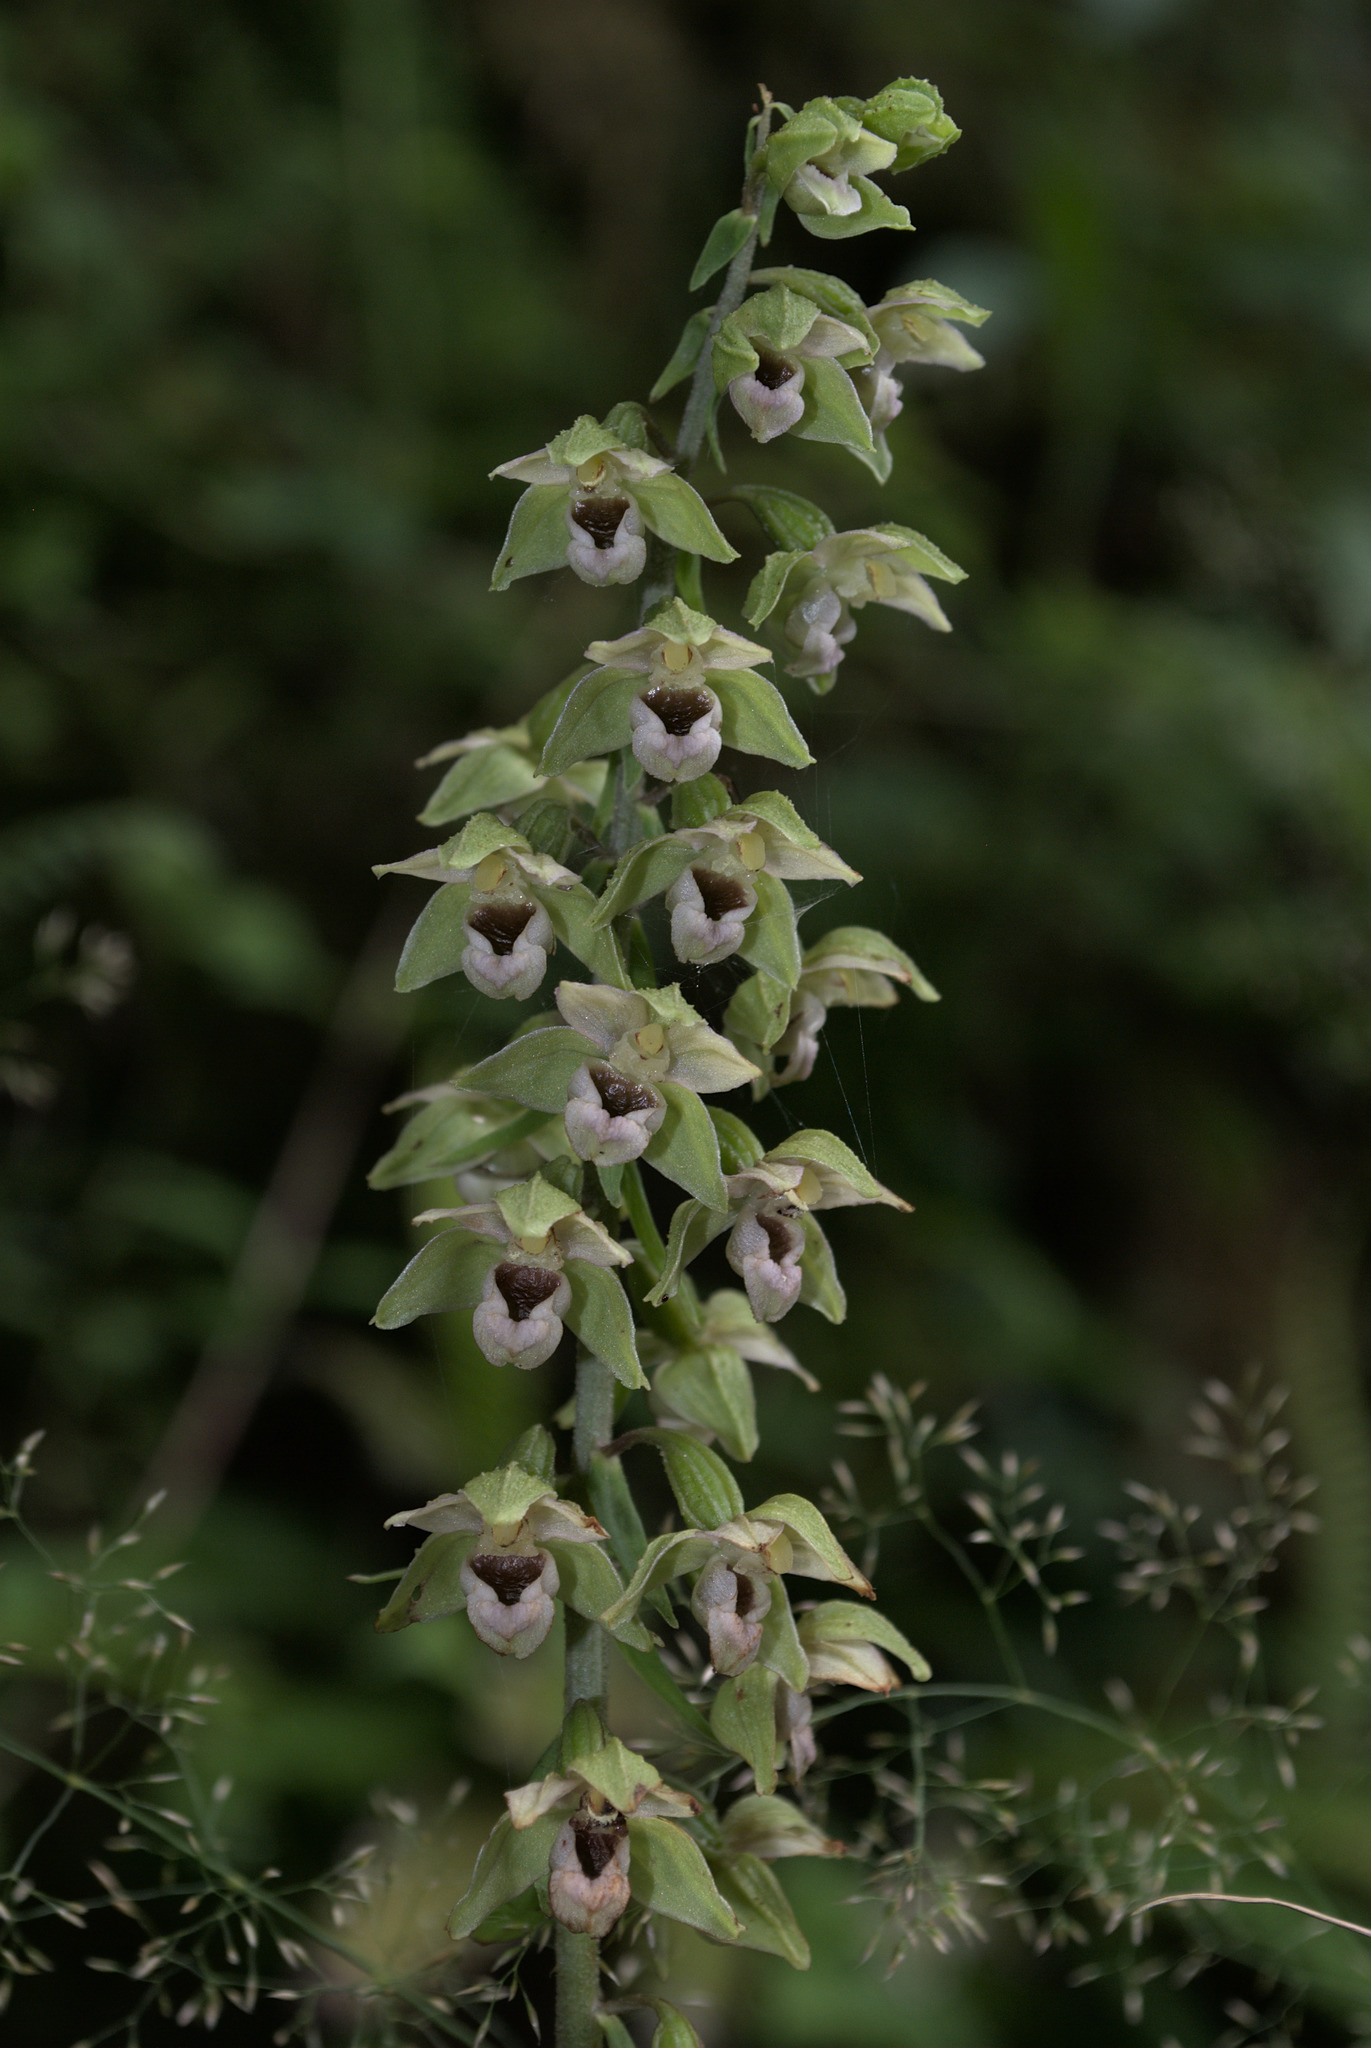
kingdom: Plantae
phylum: Tracheophyta
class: Liliopsida
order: Asparagales
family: Orchidaceae
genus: Epipactis
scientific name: Epipactis helleborine
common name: Broad-leaved helleborine
